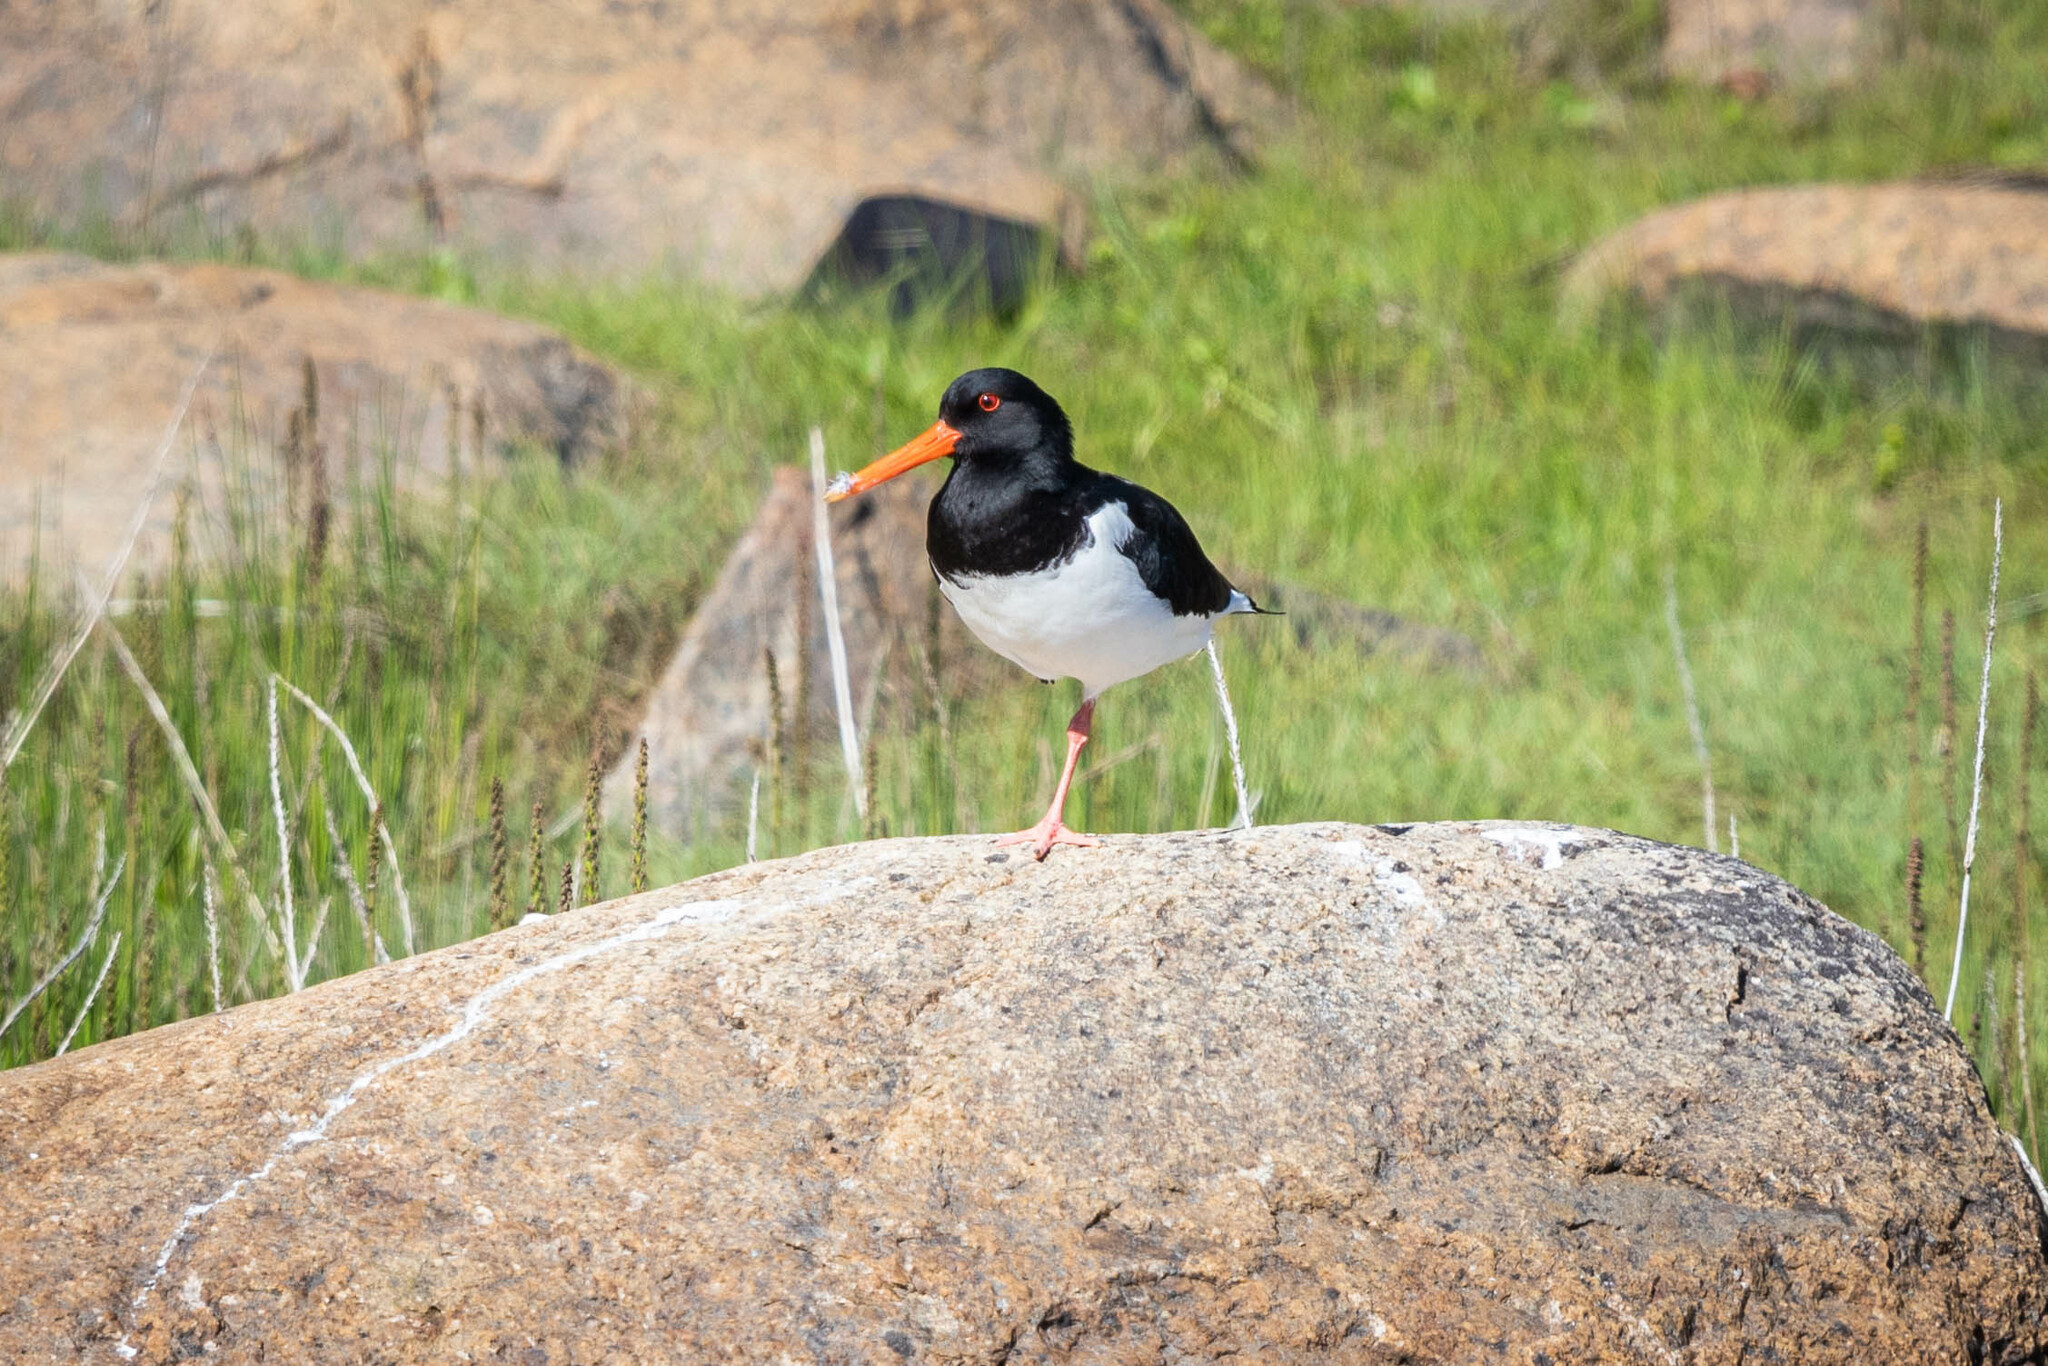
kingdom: Animalia
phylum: Chordata
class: Aves
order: Charadriiformes
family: Haematopodidae
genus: Haematopus
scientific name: Haematopus ostralegus
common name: Eurasian oystercatcher
